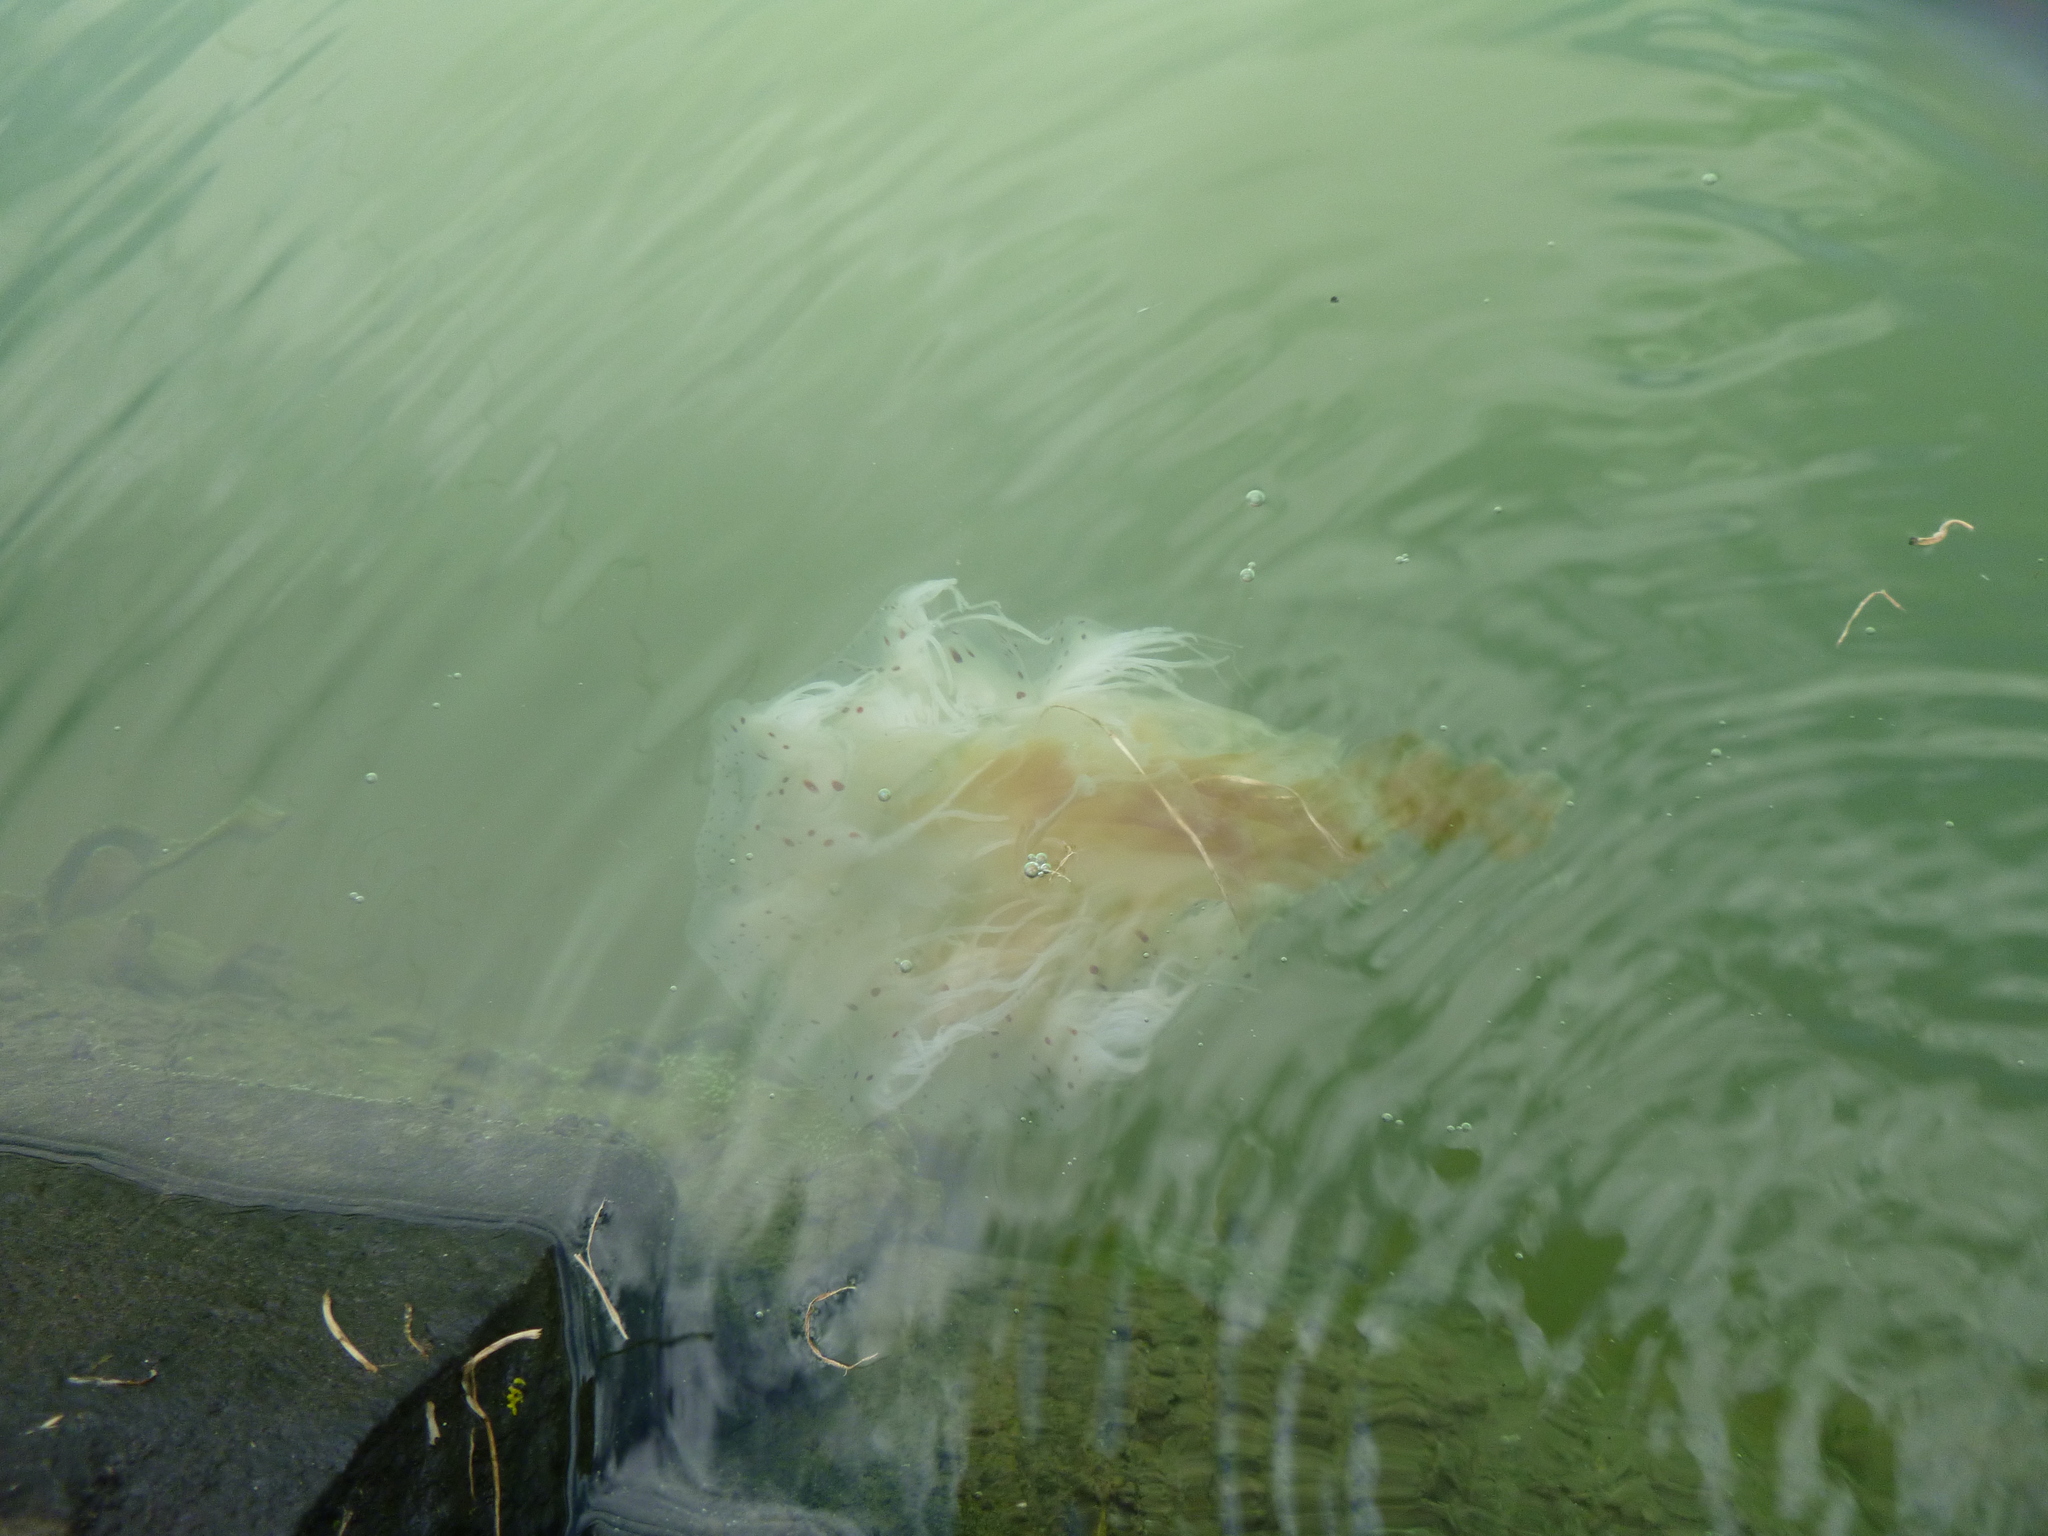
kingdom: Animalia
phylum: Cnidaria
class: Scyphozoa
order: Semaeostomeae
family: Cyaneidae
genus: Desmonema
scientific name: Desmonema gaudichaudi
